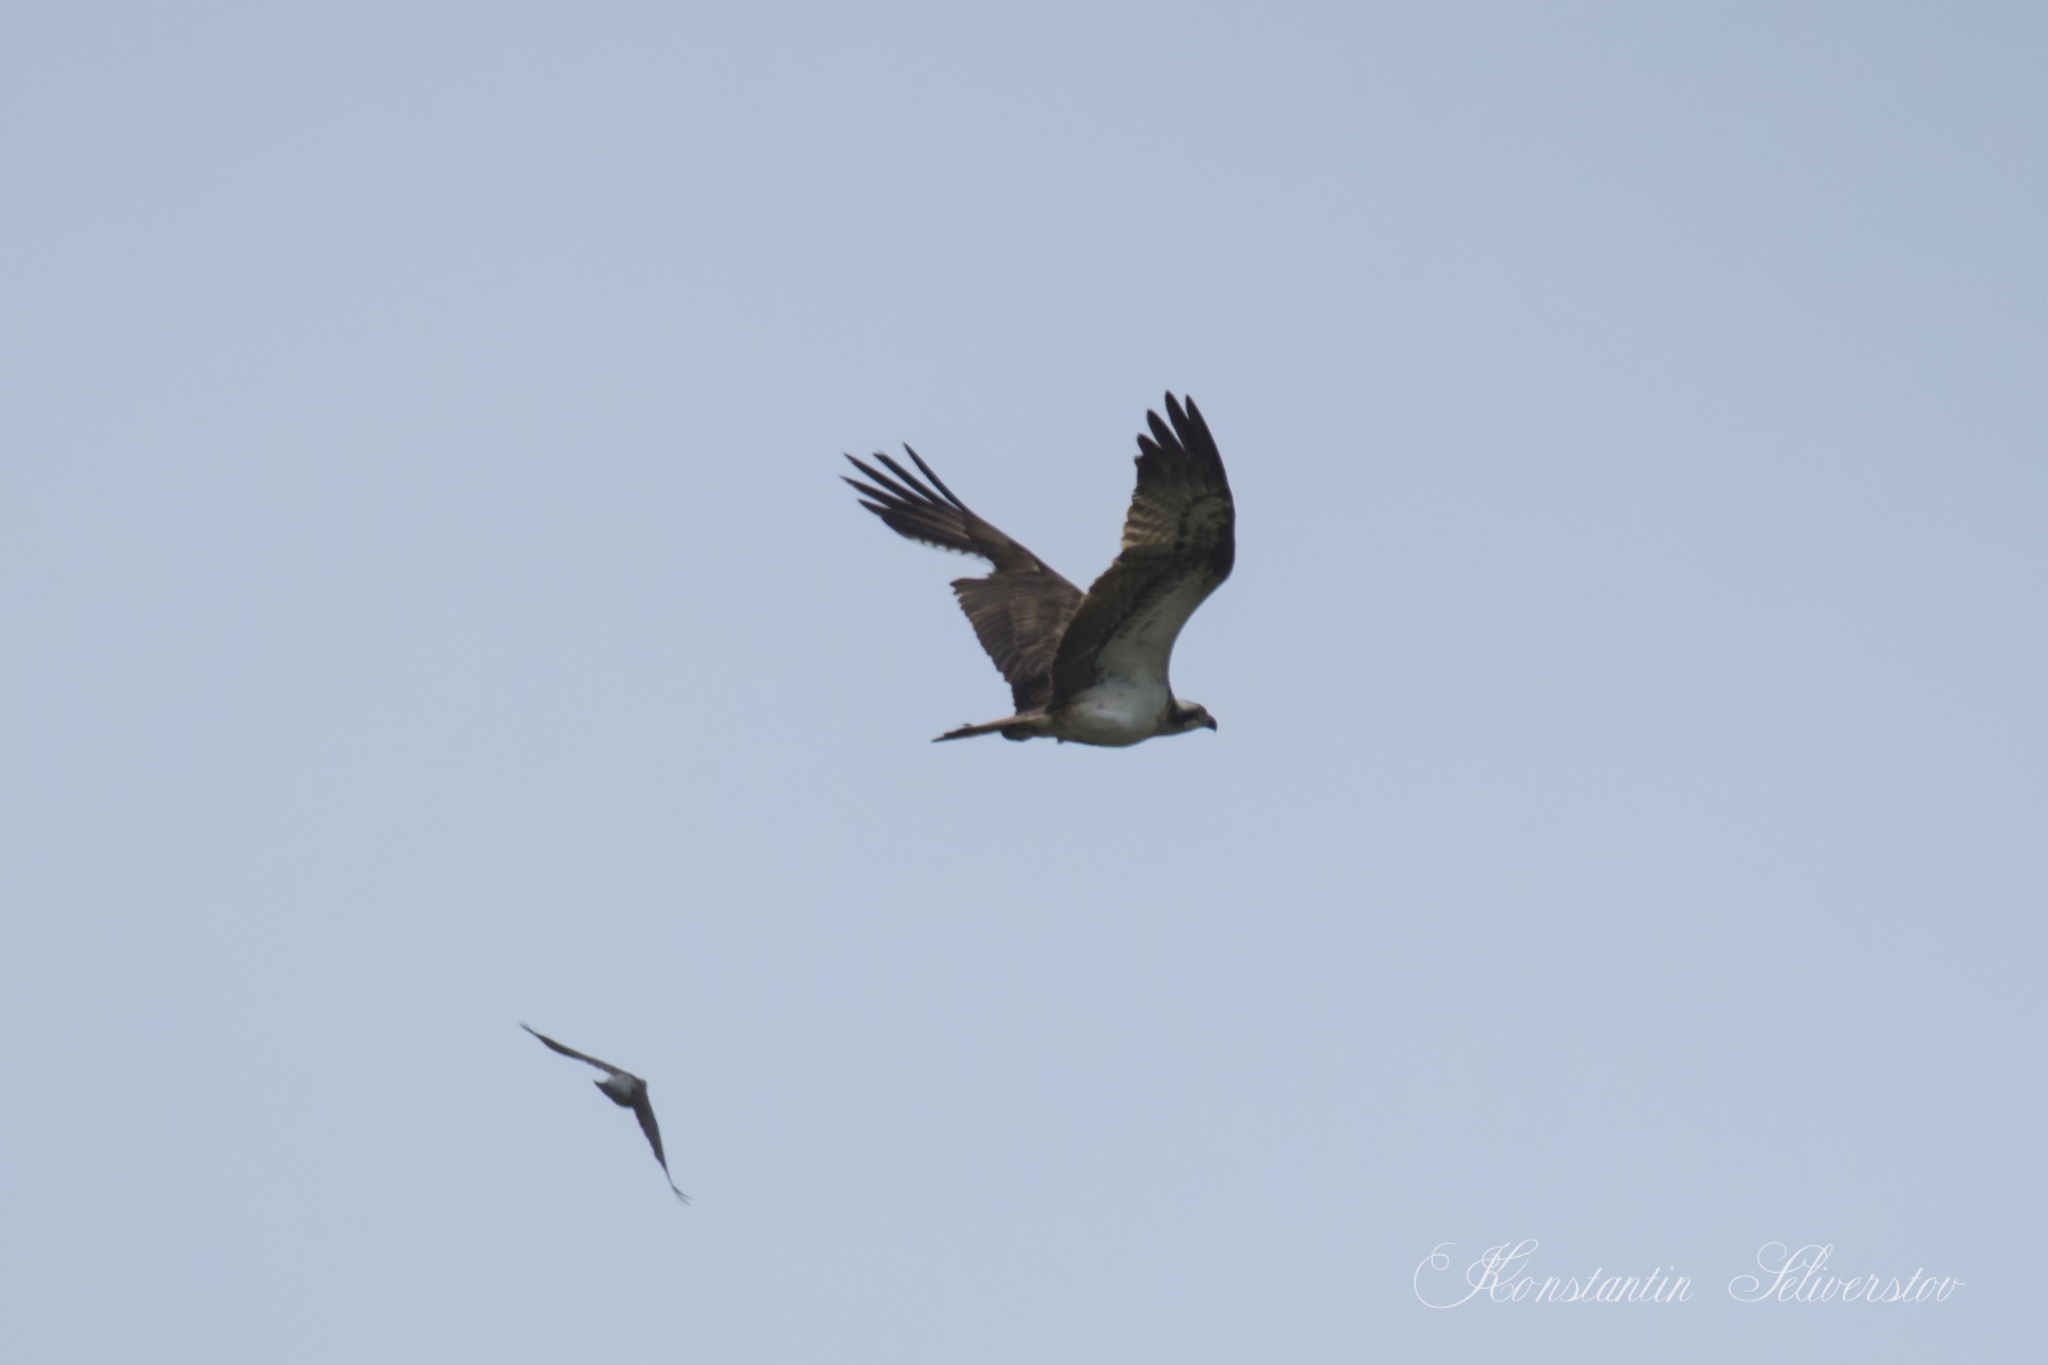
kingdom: Animalia
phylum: Chordata
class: Aves
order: Accipitriformes
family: Pandionidae
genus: Pandion
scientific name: Pandion haliaetus
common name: Osprey
